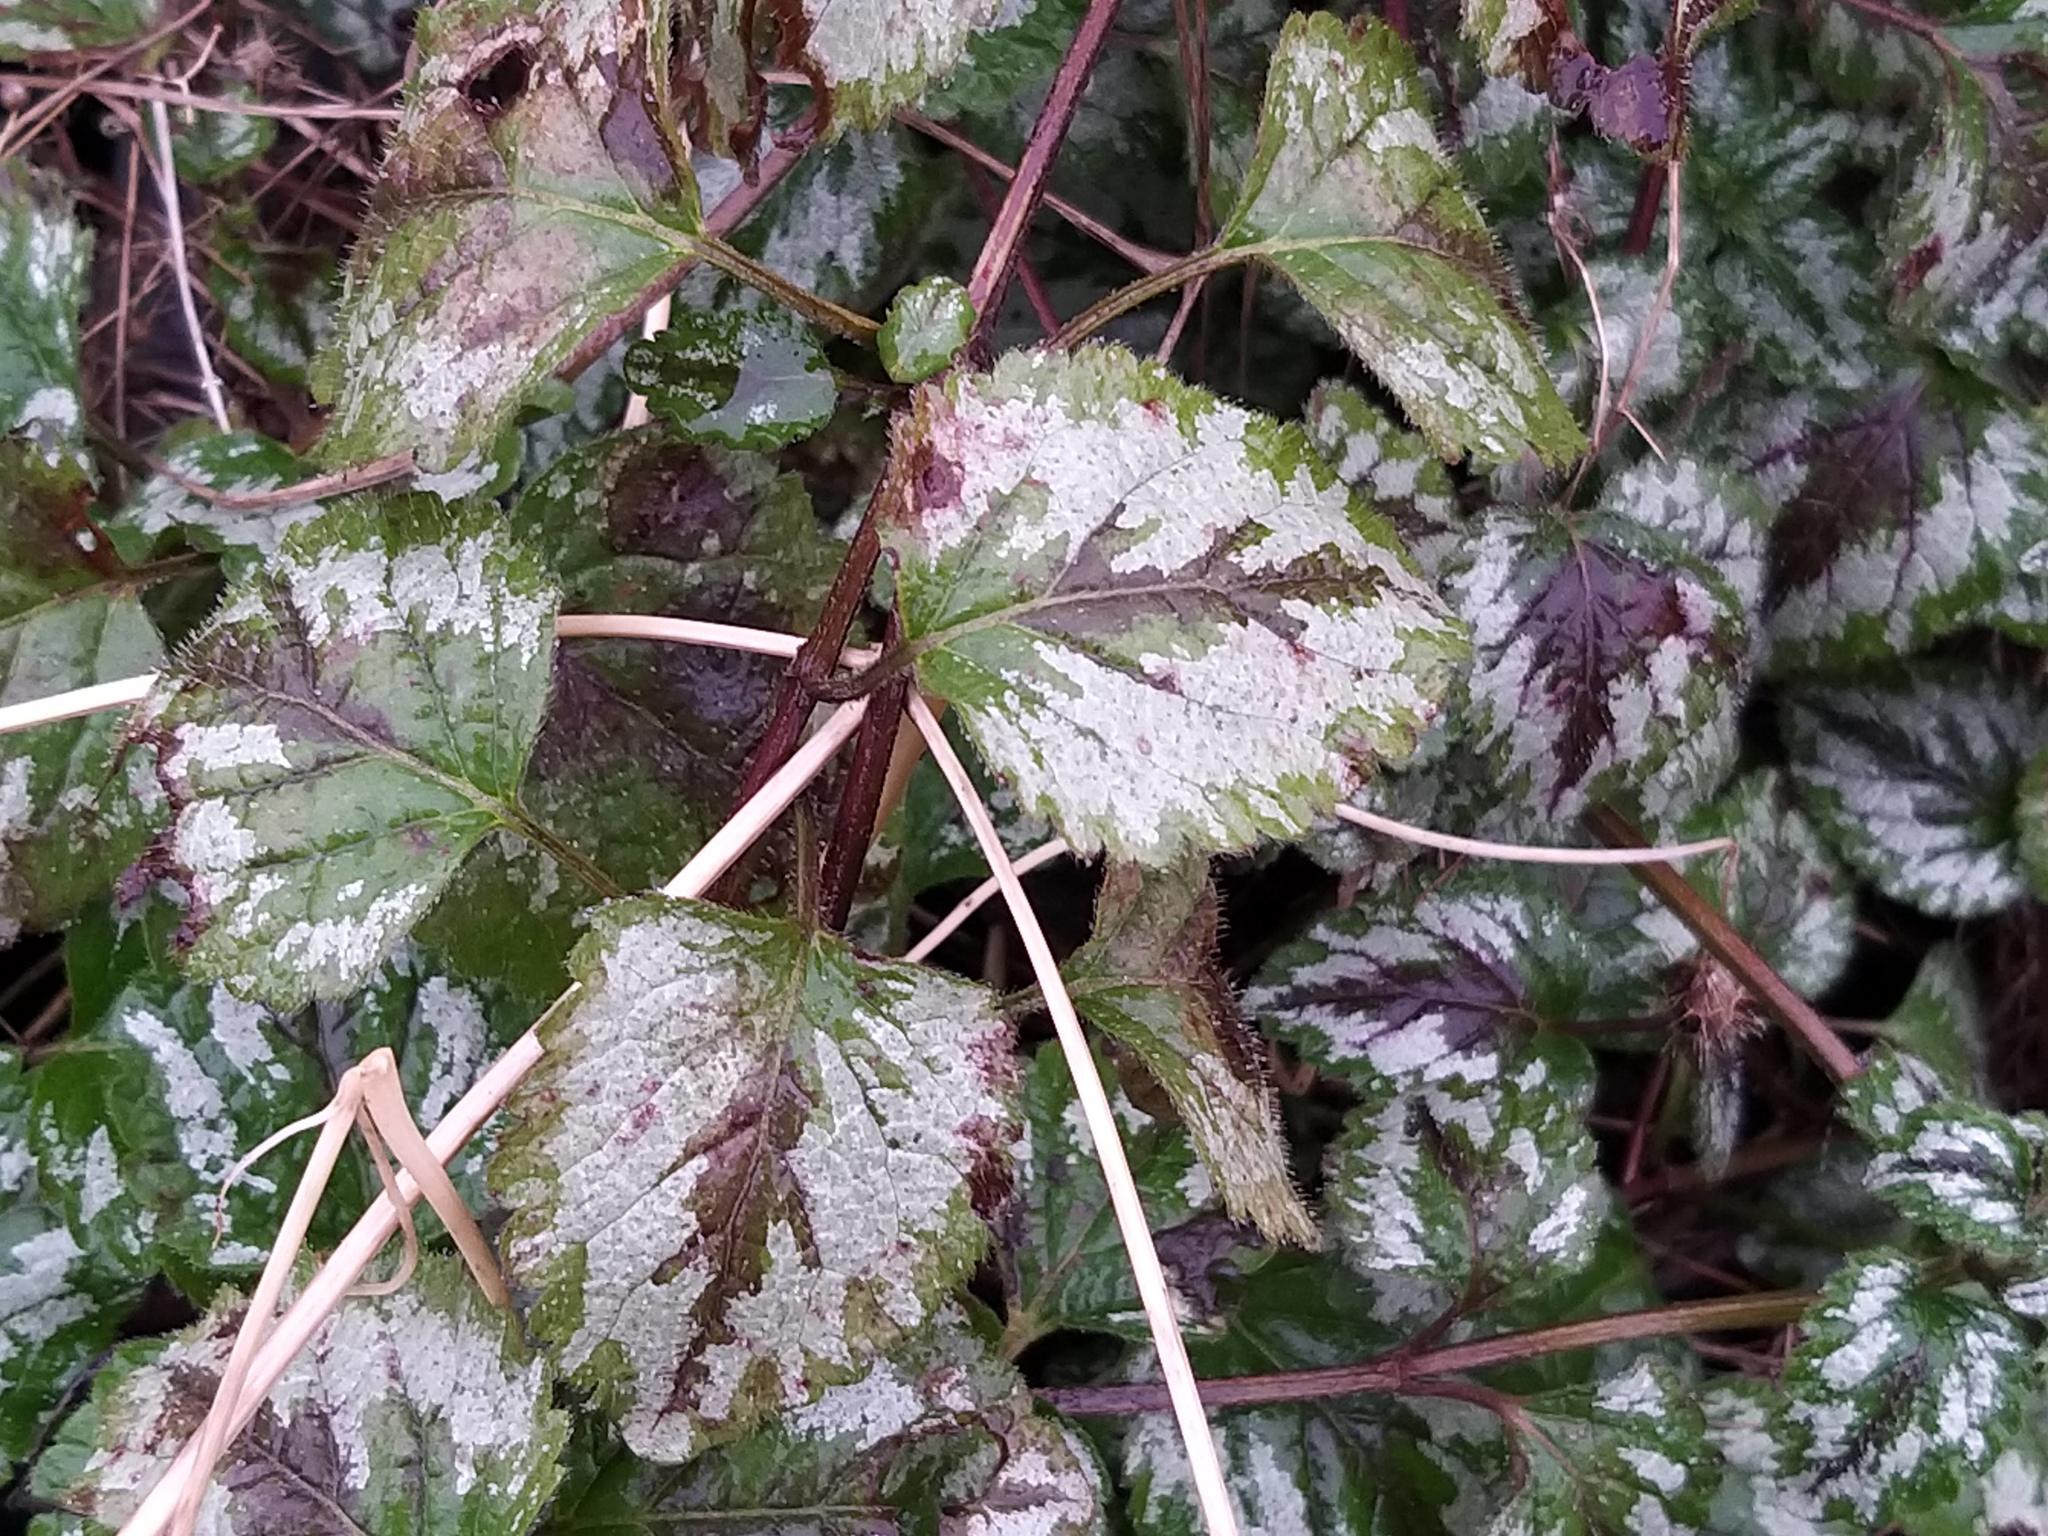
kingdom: Plantae
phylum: Tracheophyta
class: Magnoliopsida
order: Lamiales
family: Lamiaceae
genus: Lamium
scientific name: Lamium galeobdolon
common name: Yellow archangel
